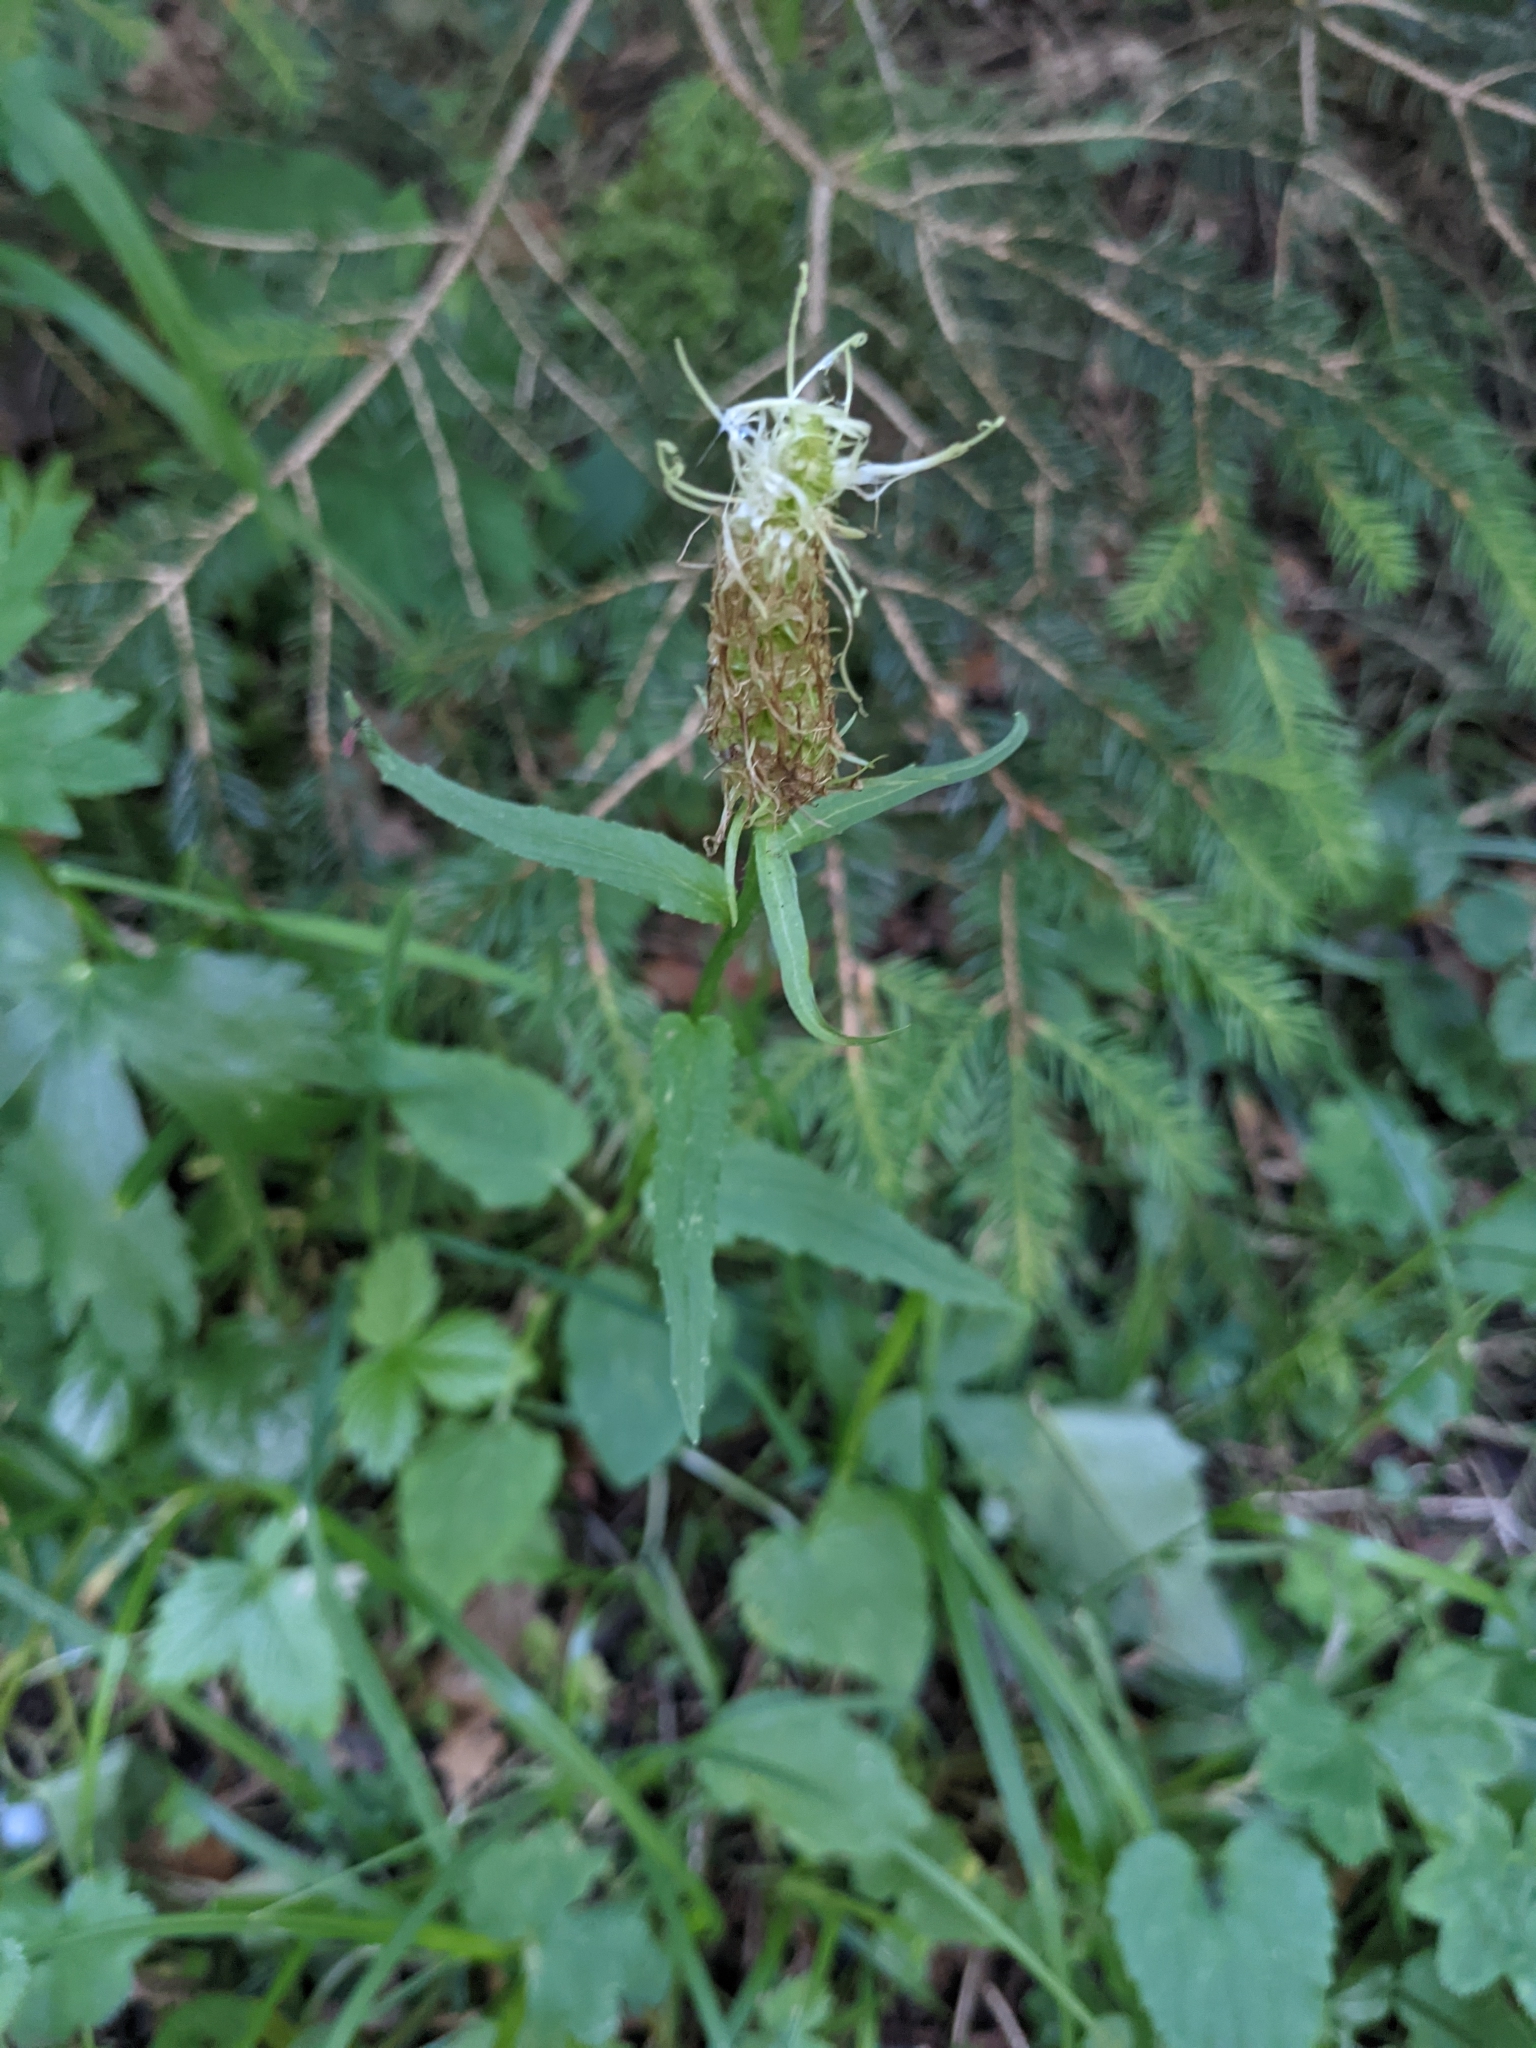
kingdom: Plantae
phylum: Tracheophyta
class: Magnoliopsida
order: Asterales
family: Campanulaceae
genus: Phyteuma
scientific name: Phyteuma spicatum
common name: Spiked rampion
